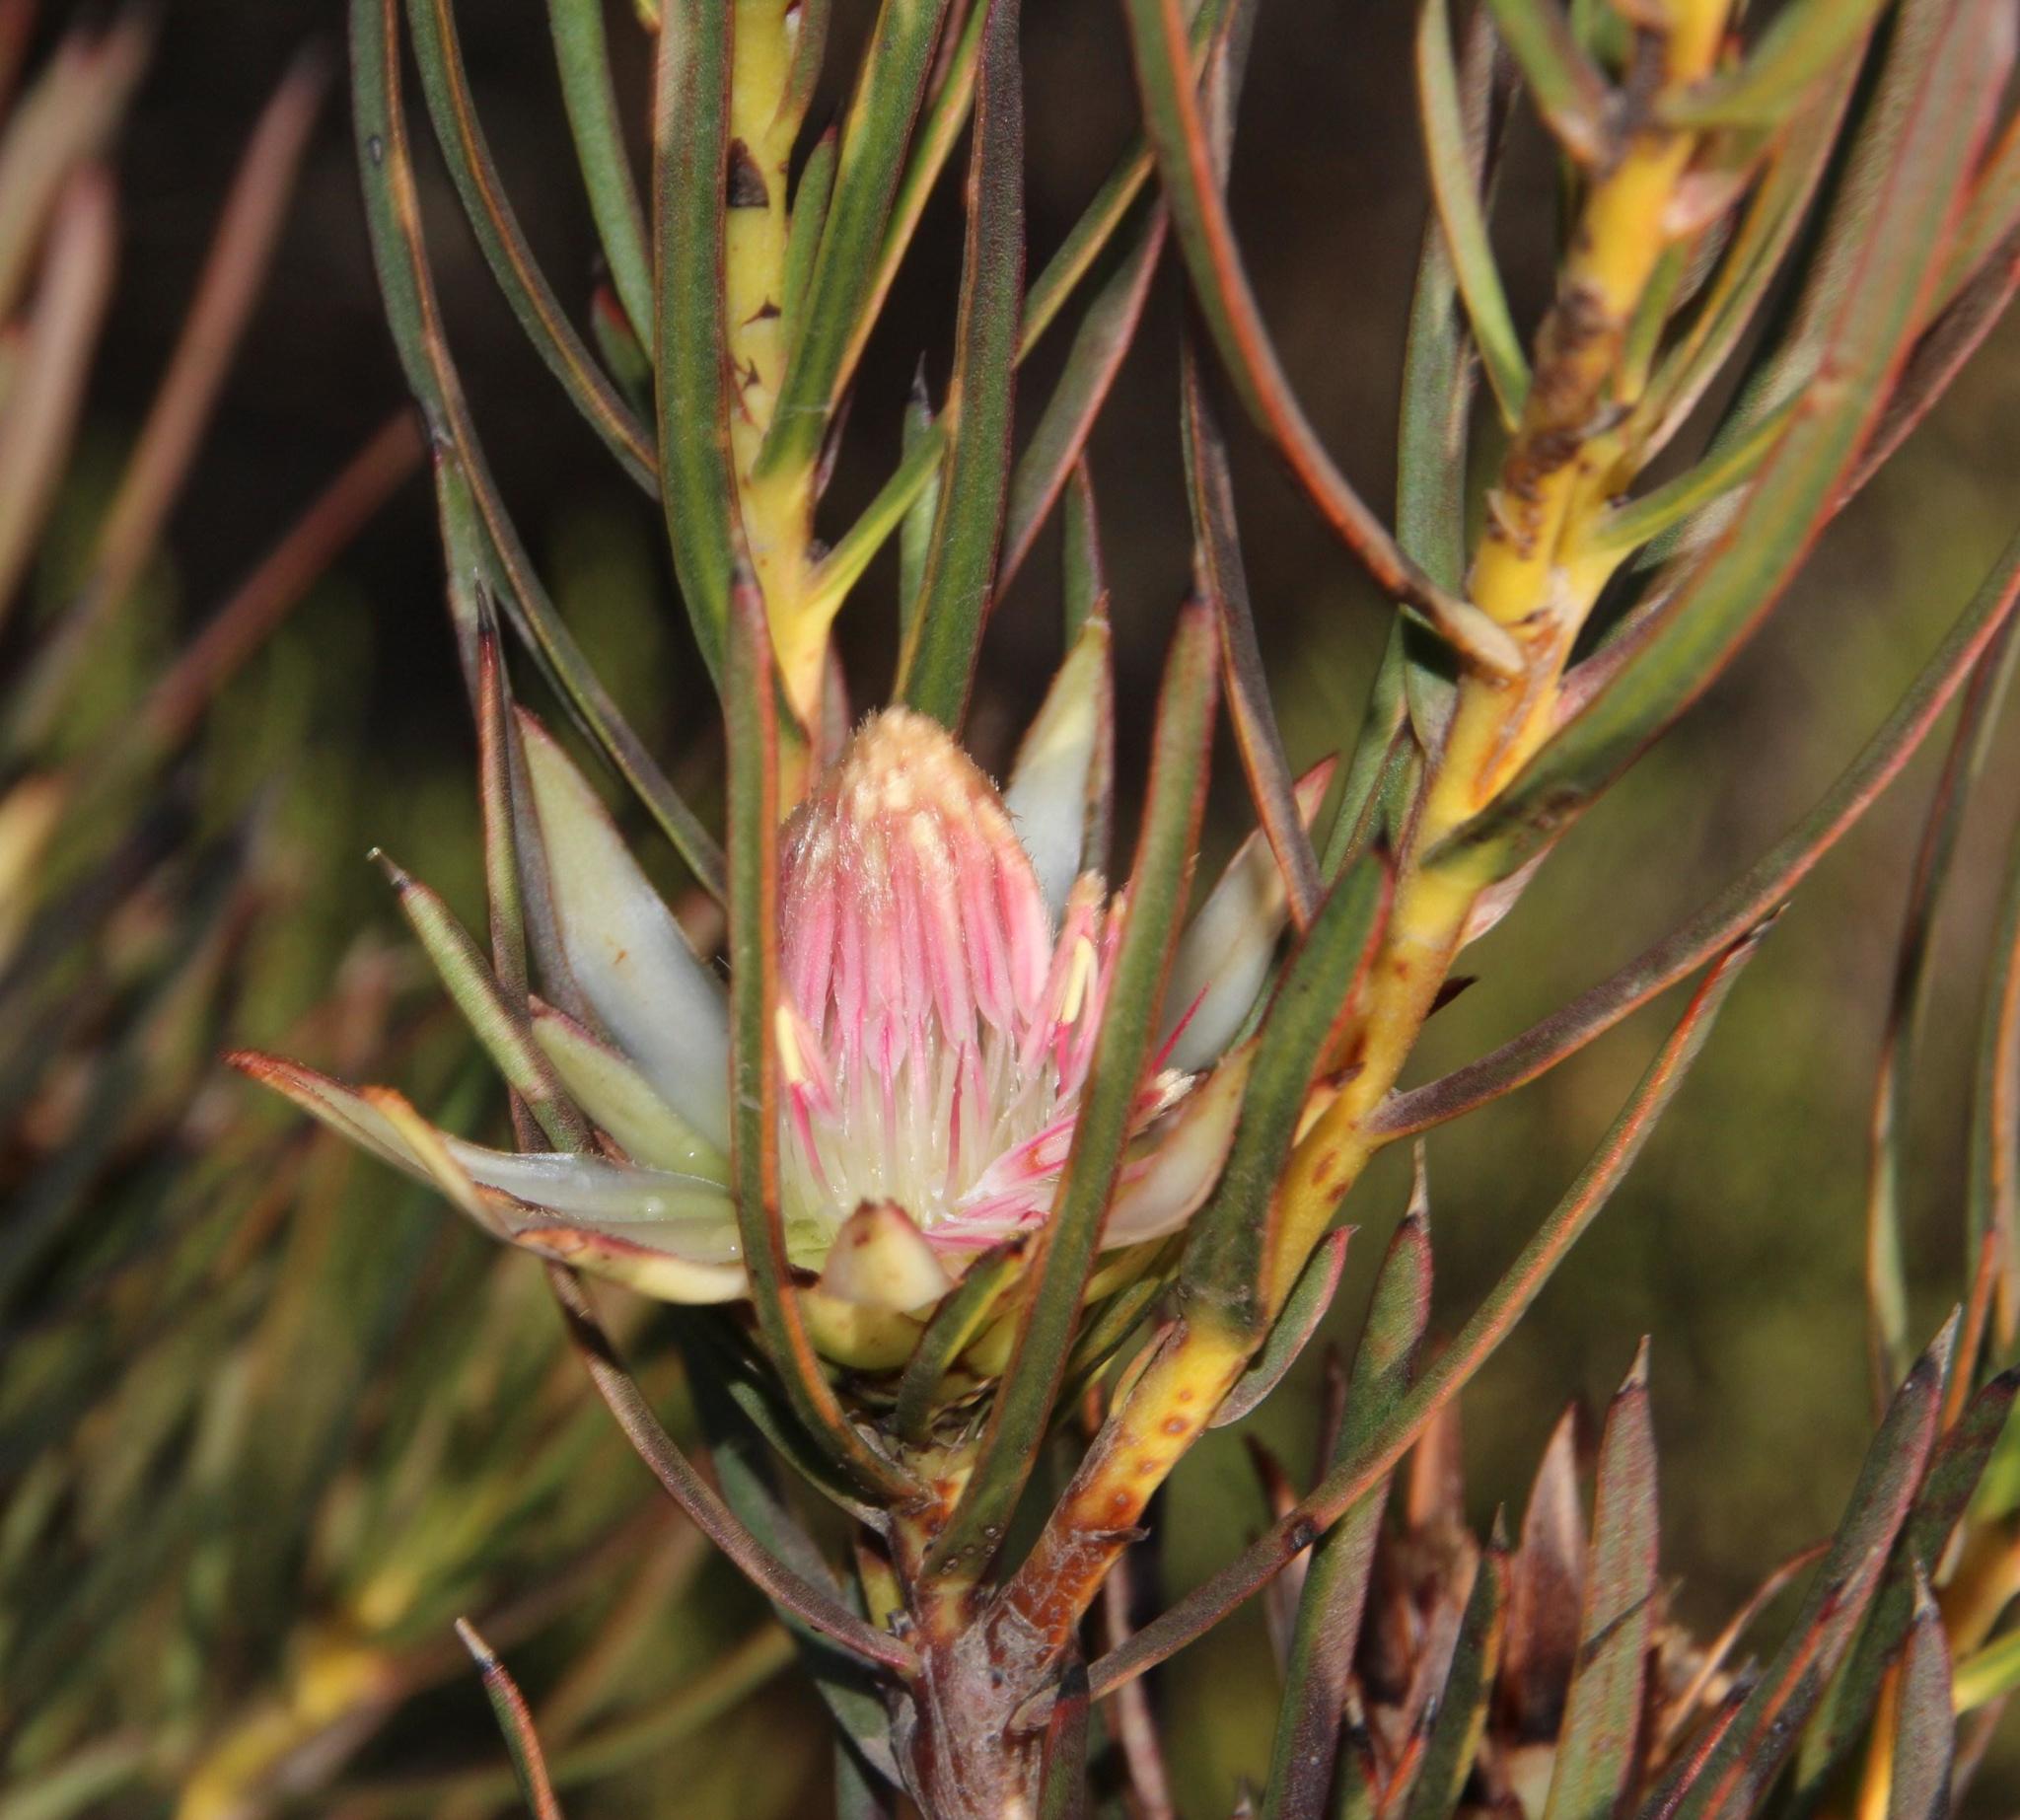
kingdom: Plantae
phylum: Tracheophyta
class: Magnoliopsida
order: Proteales
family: Proteaceae
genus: Protea
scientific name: Protea odorata
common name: Swartland sugarbush
